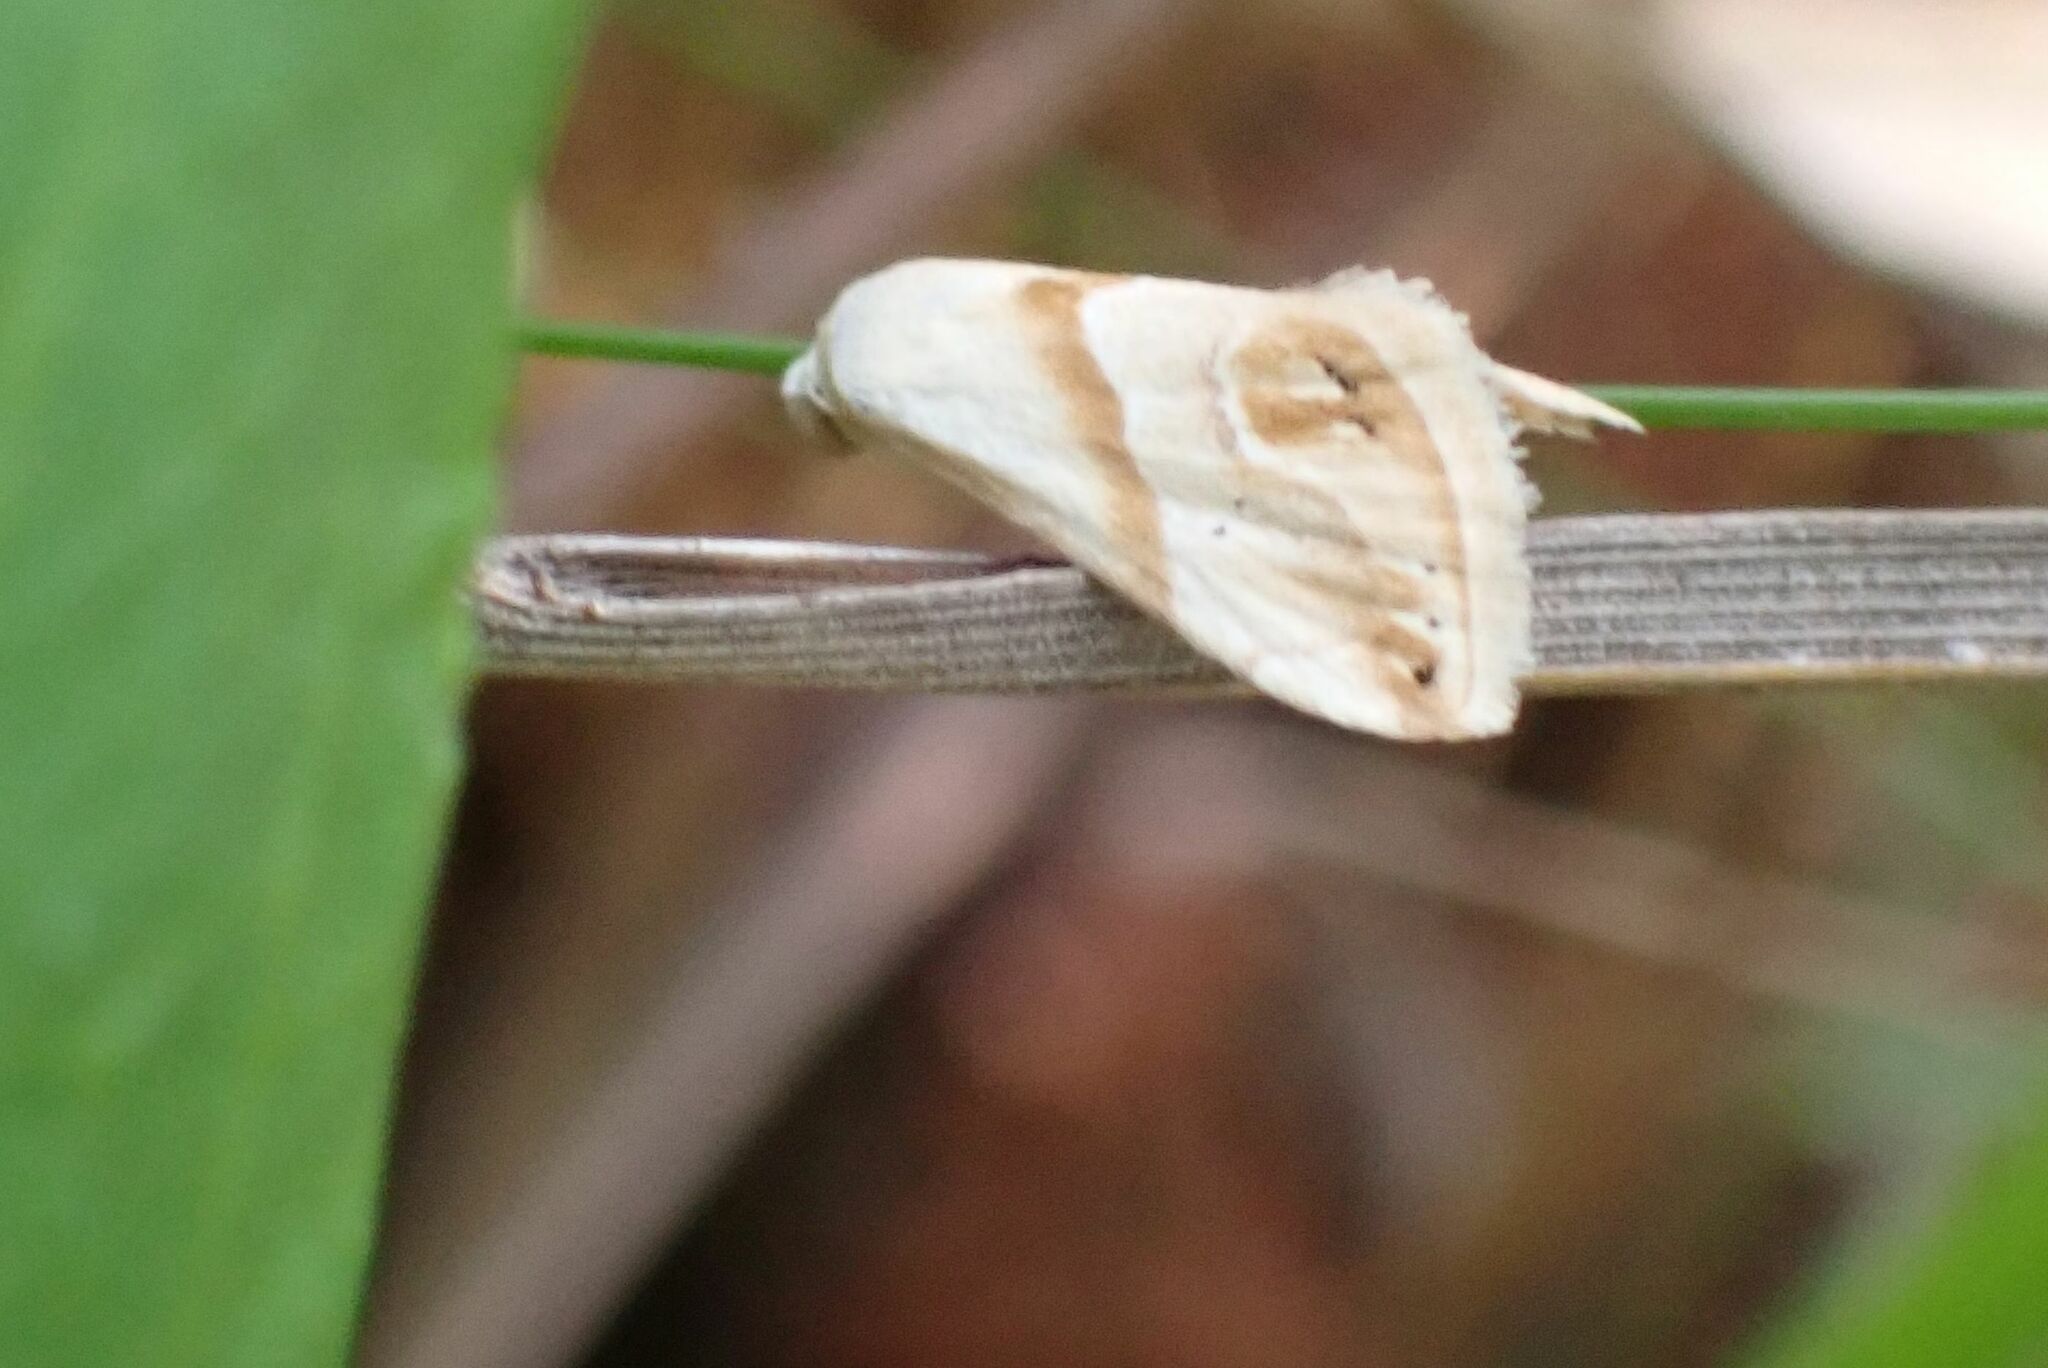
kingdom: Animalia
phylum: Arthropoda
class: Insecta
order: Lepidoptera
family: Noctuidae
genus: Eublemma
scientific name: Eublemma exigua
